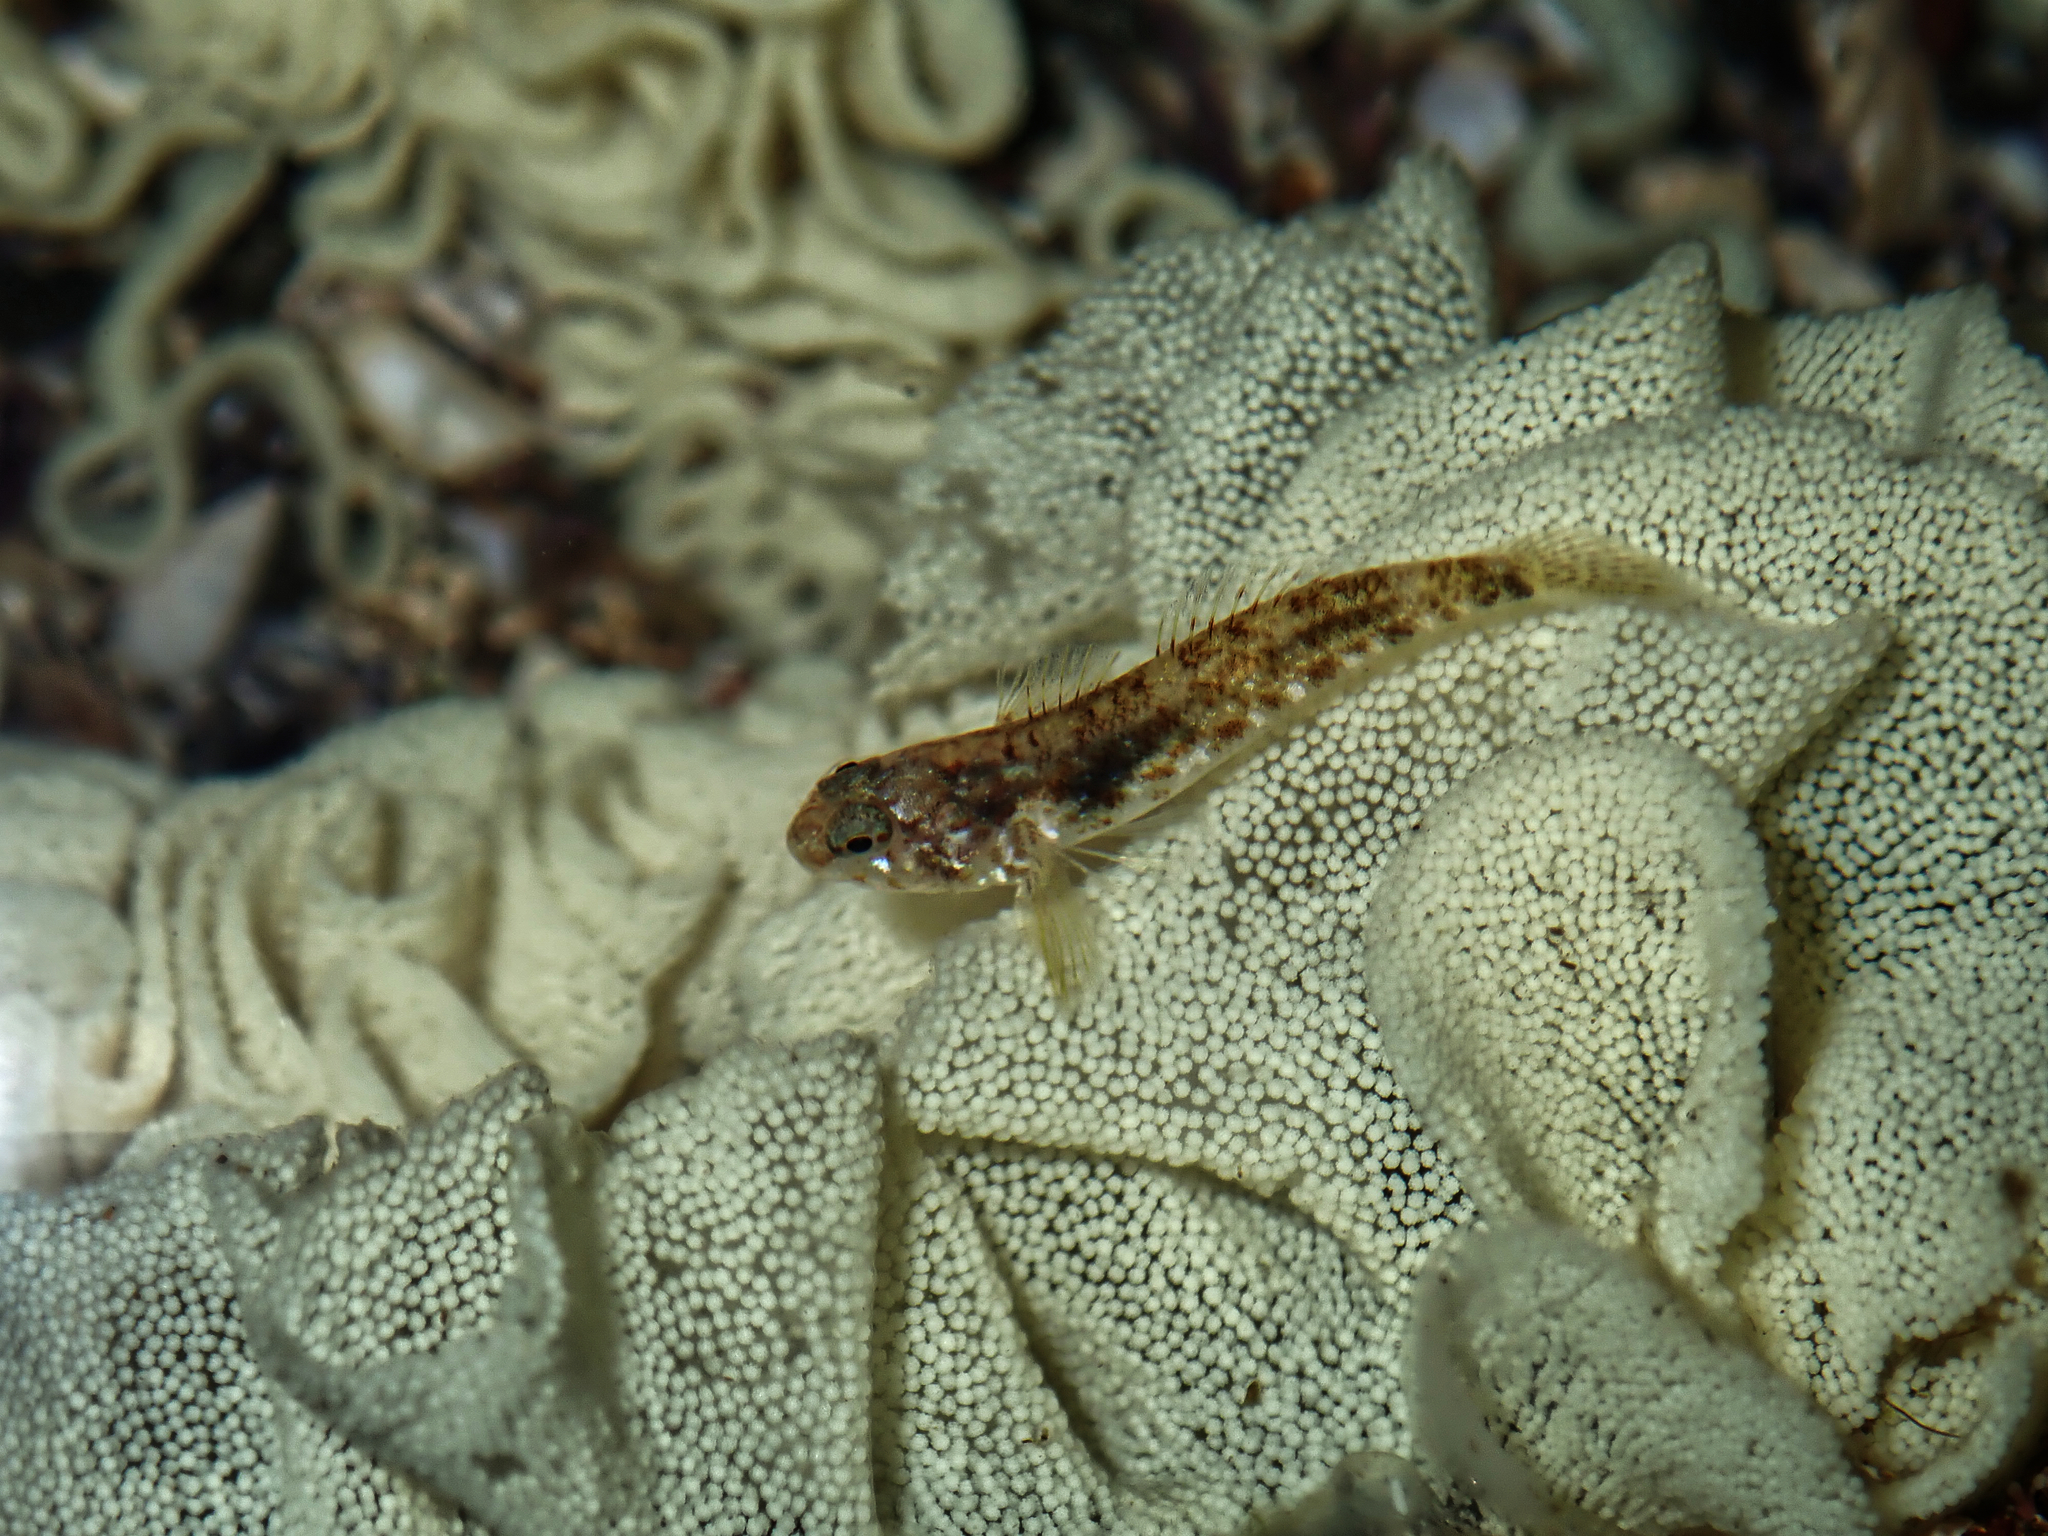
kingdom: Animalia
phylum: Chordata
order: Perciformes
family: Gobiidae
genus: Bathygobius
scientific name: Bathygobius cocosensis
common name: Cocos frillgoby
